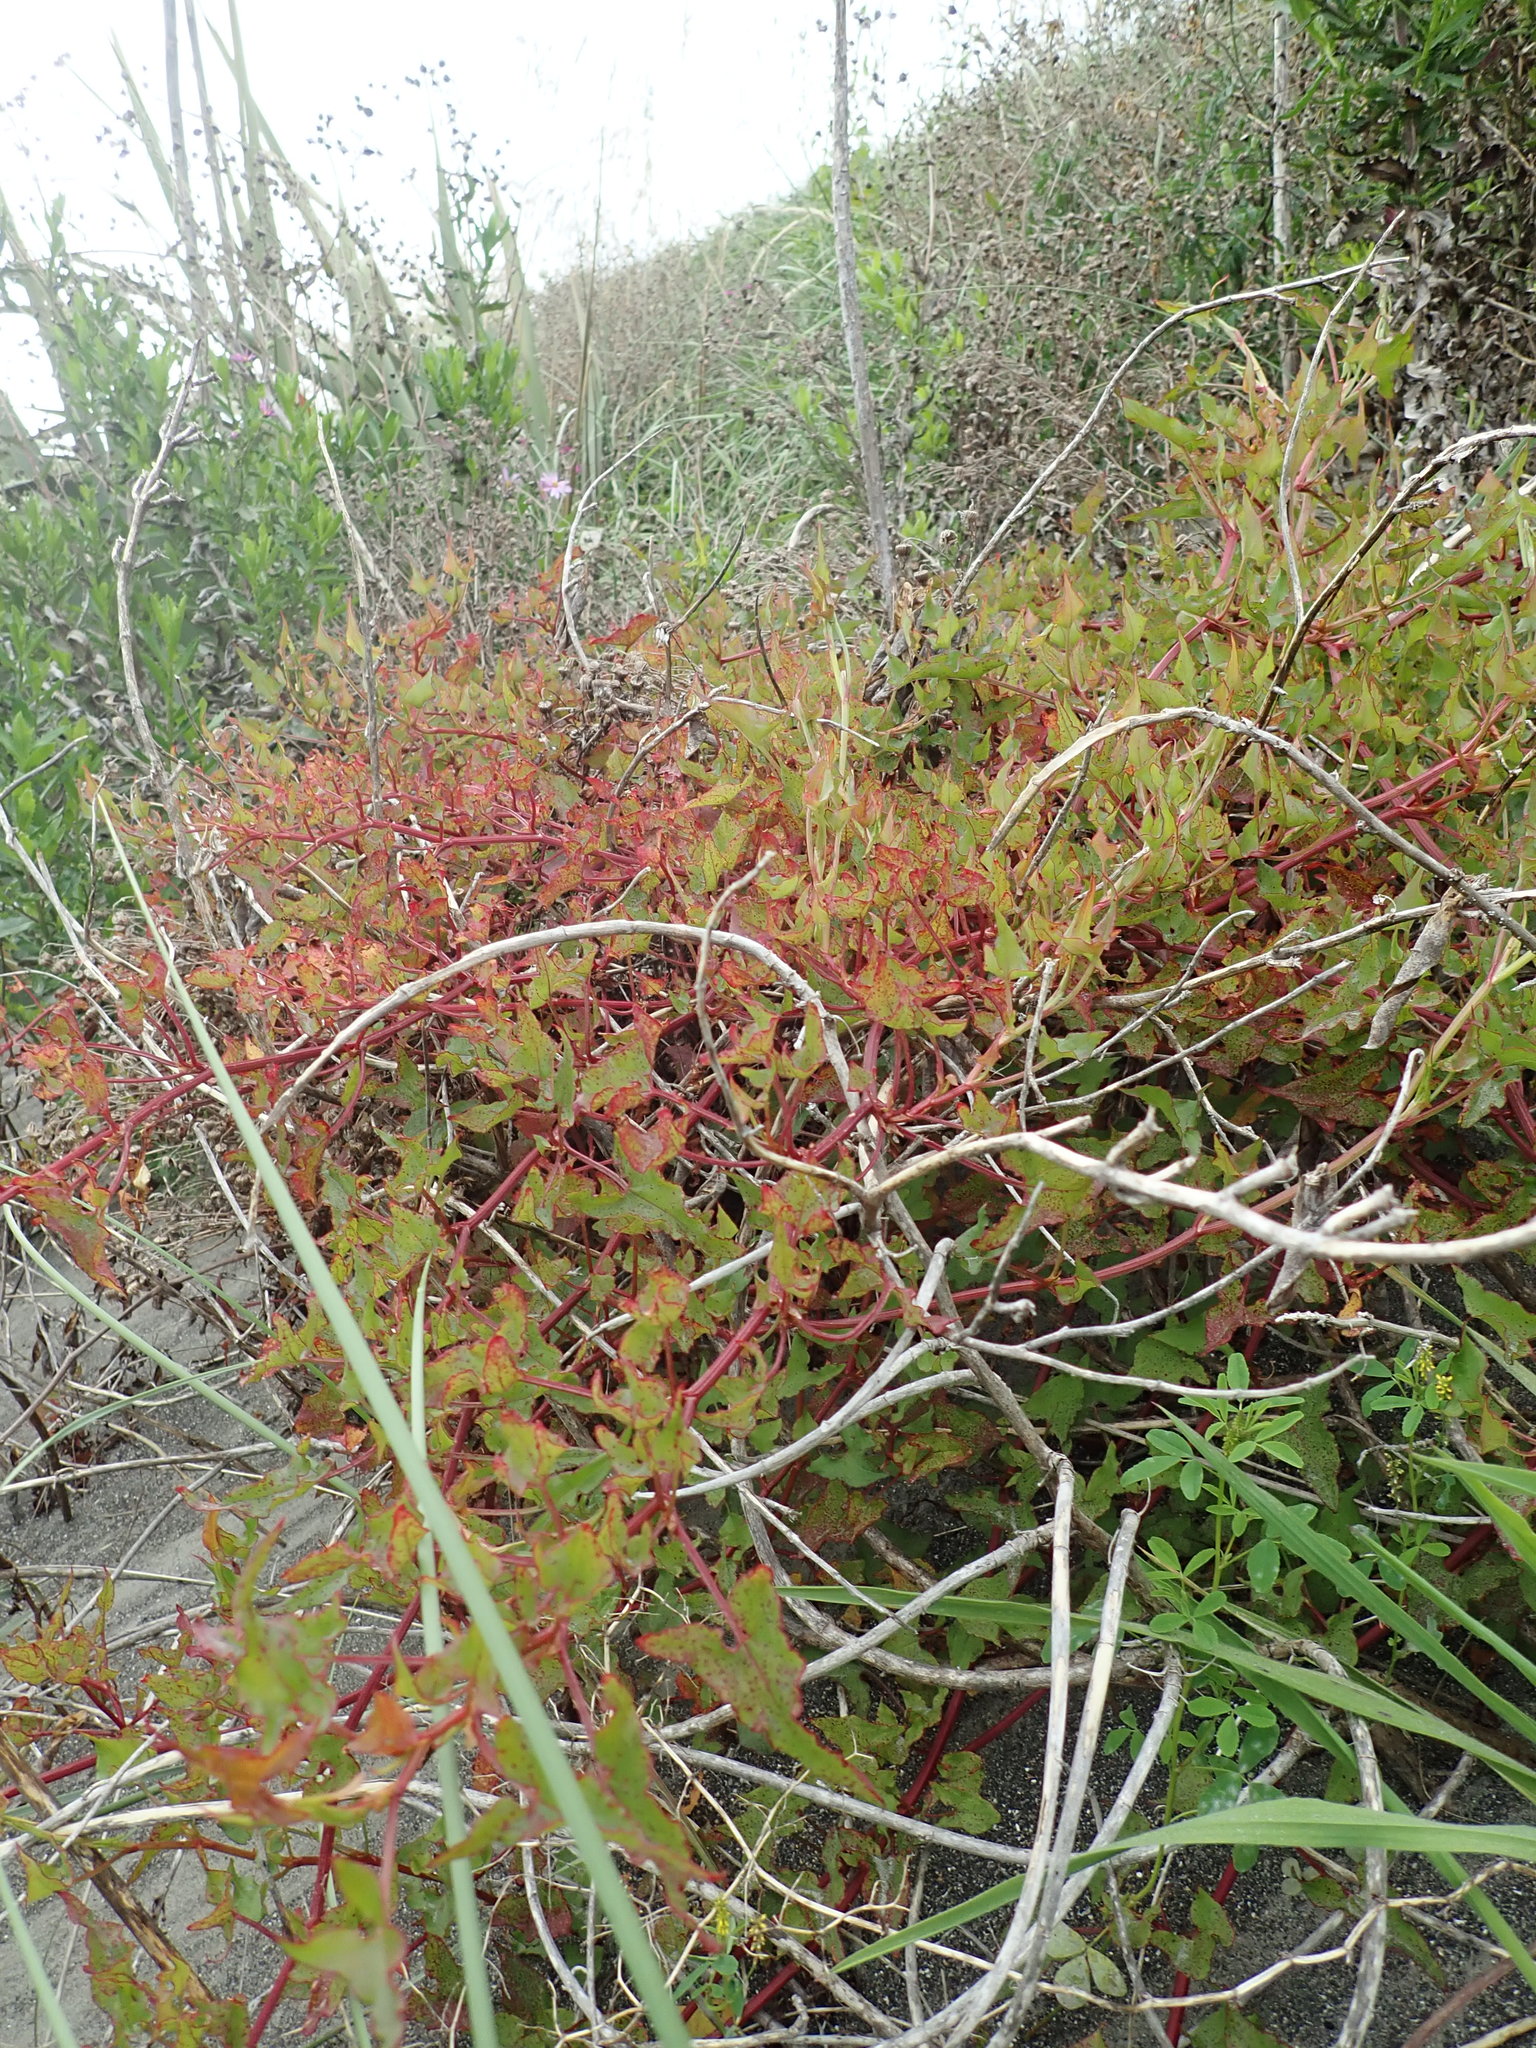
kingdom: Plantae
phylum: Tracheophyta
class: Magnoliopsida
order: Caryophyllales
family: Polygonaceae
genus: Rumex
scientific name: Rumex sagittatus
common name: Climbing dock
